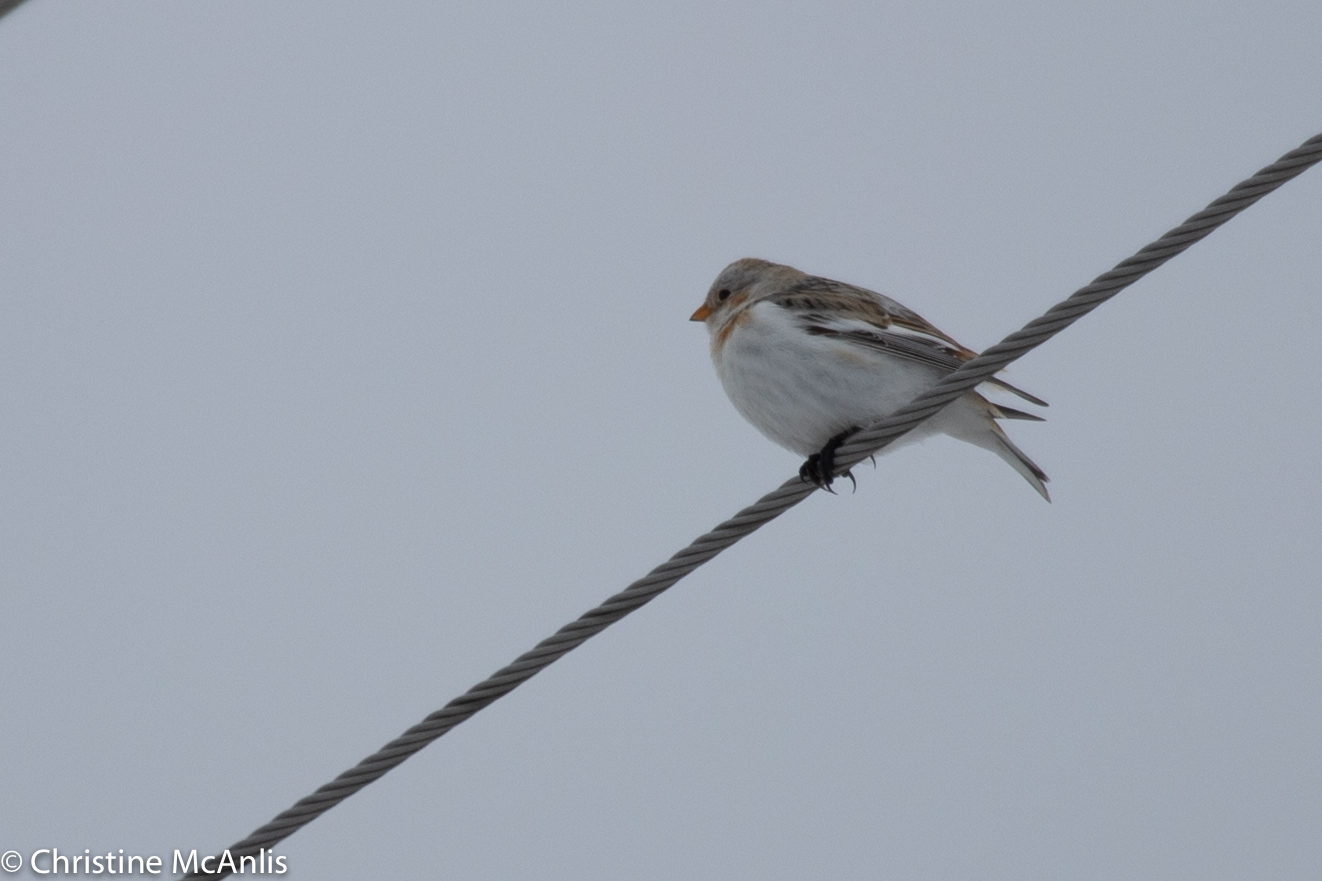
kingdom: Animalia
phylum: Chordata
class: Aves
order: Passeriformes
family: Calcariidae
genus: Plectrophenax
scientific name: Plectrophenax nivalis
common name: Snow bunting
